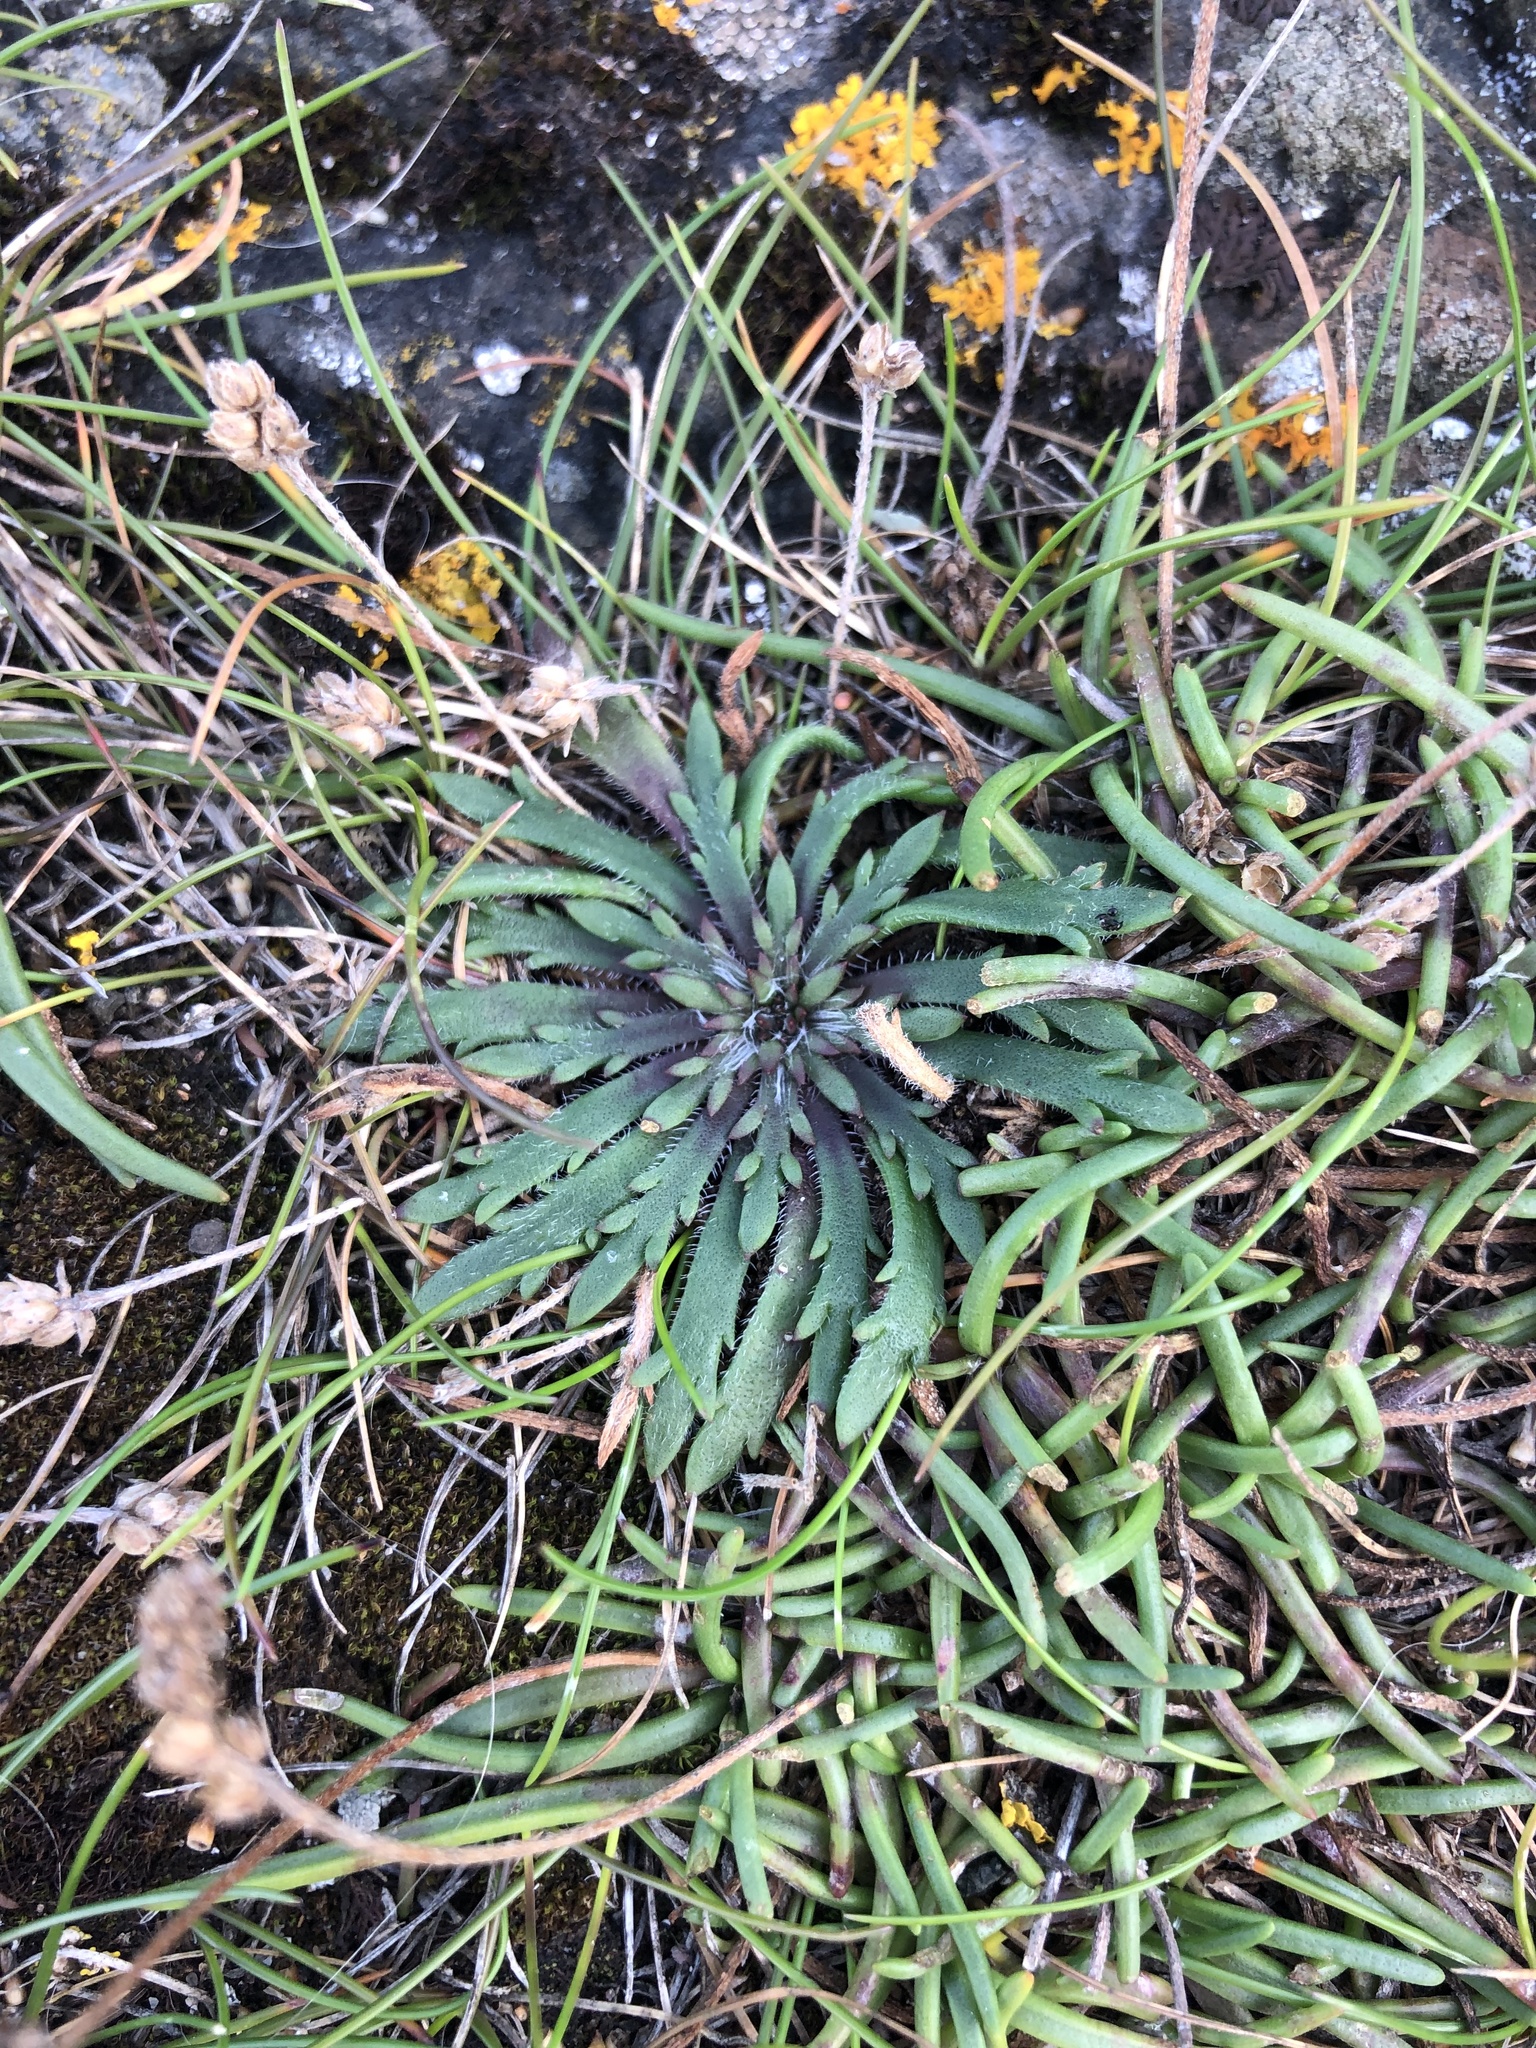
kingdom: Plantae
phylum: Tracheophyta
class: Magnoliopsida
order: Lamiales
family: Plantaginaceae
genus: Plantago
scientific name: Plantago coronopus
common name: Buck's-horn plantain
